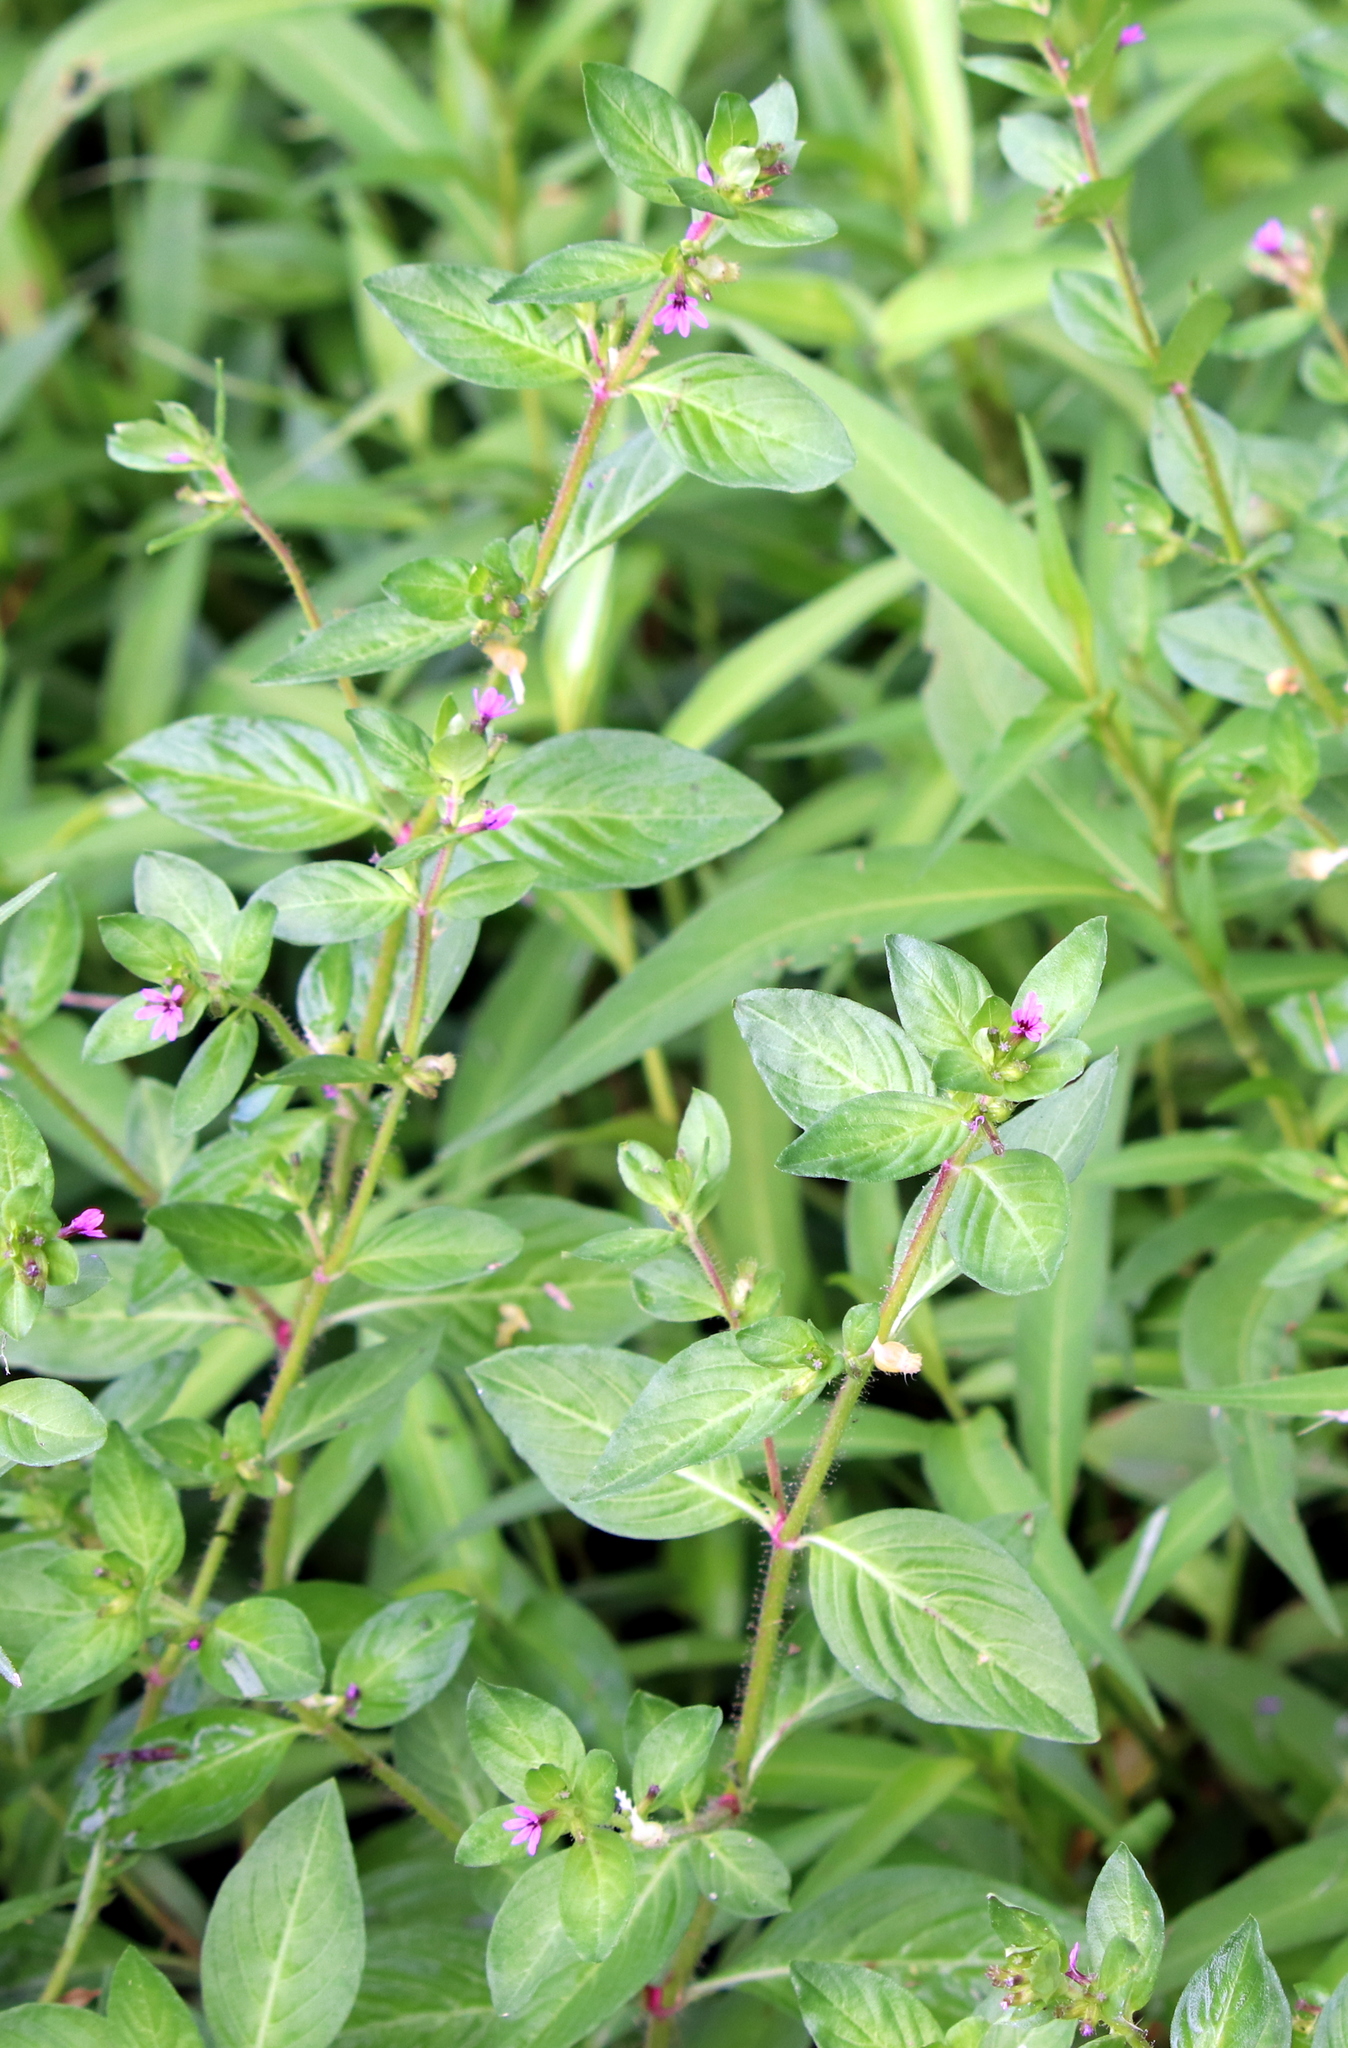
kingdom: Plantae
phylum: Tracheophyta
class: Magnoliopsida
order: Myrtales
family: Lythraceae
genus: Cuphea
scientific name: Cuphea carthagenensis
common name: Colombian waxweed
